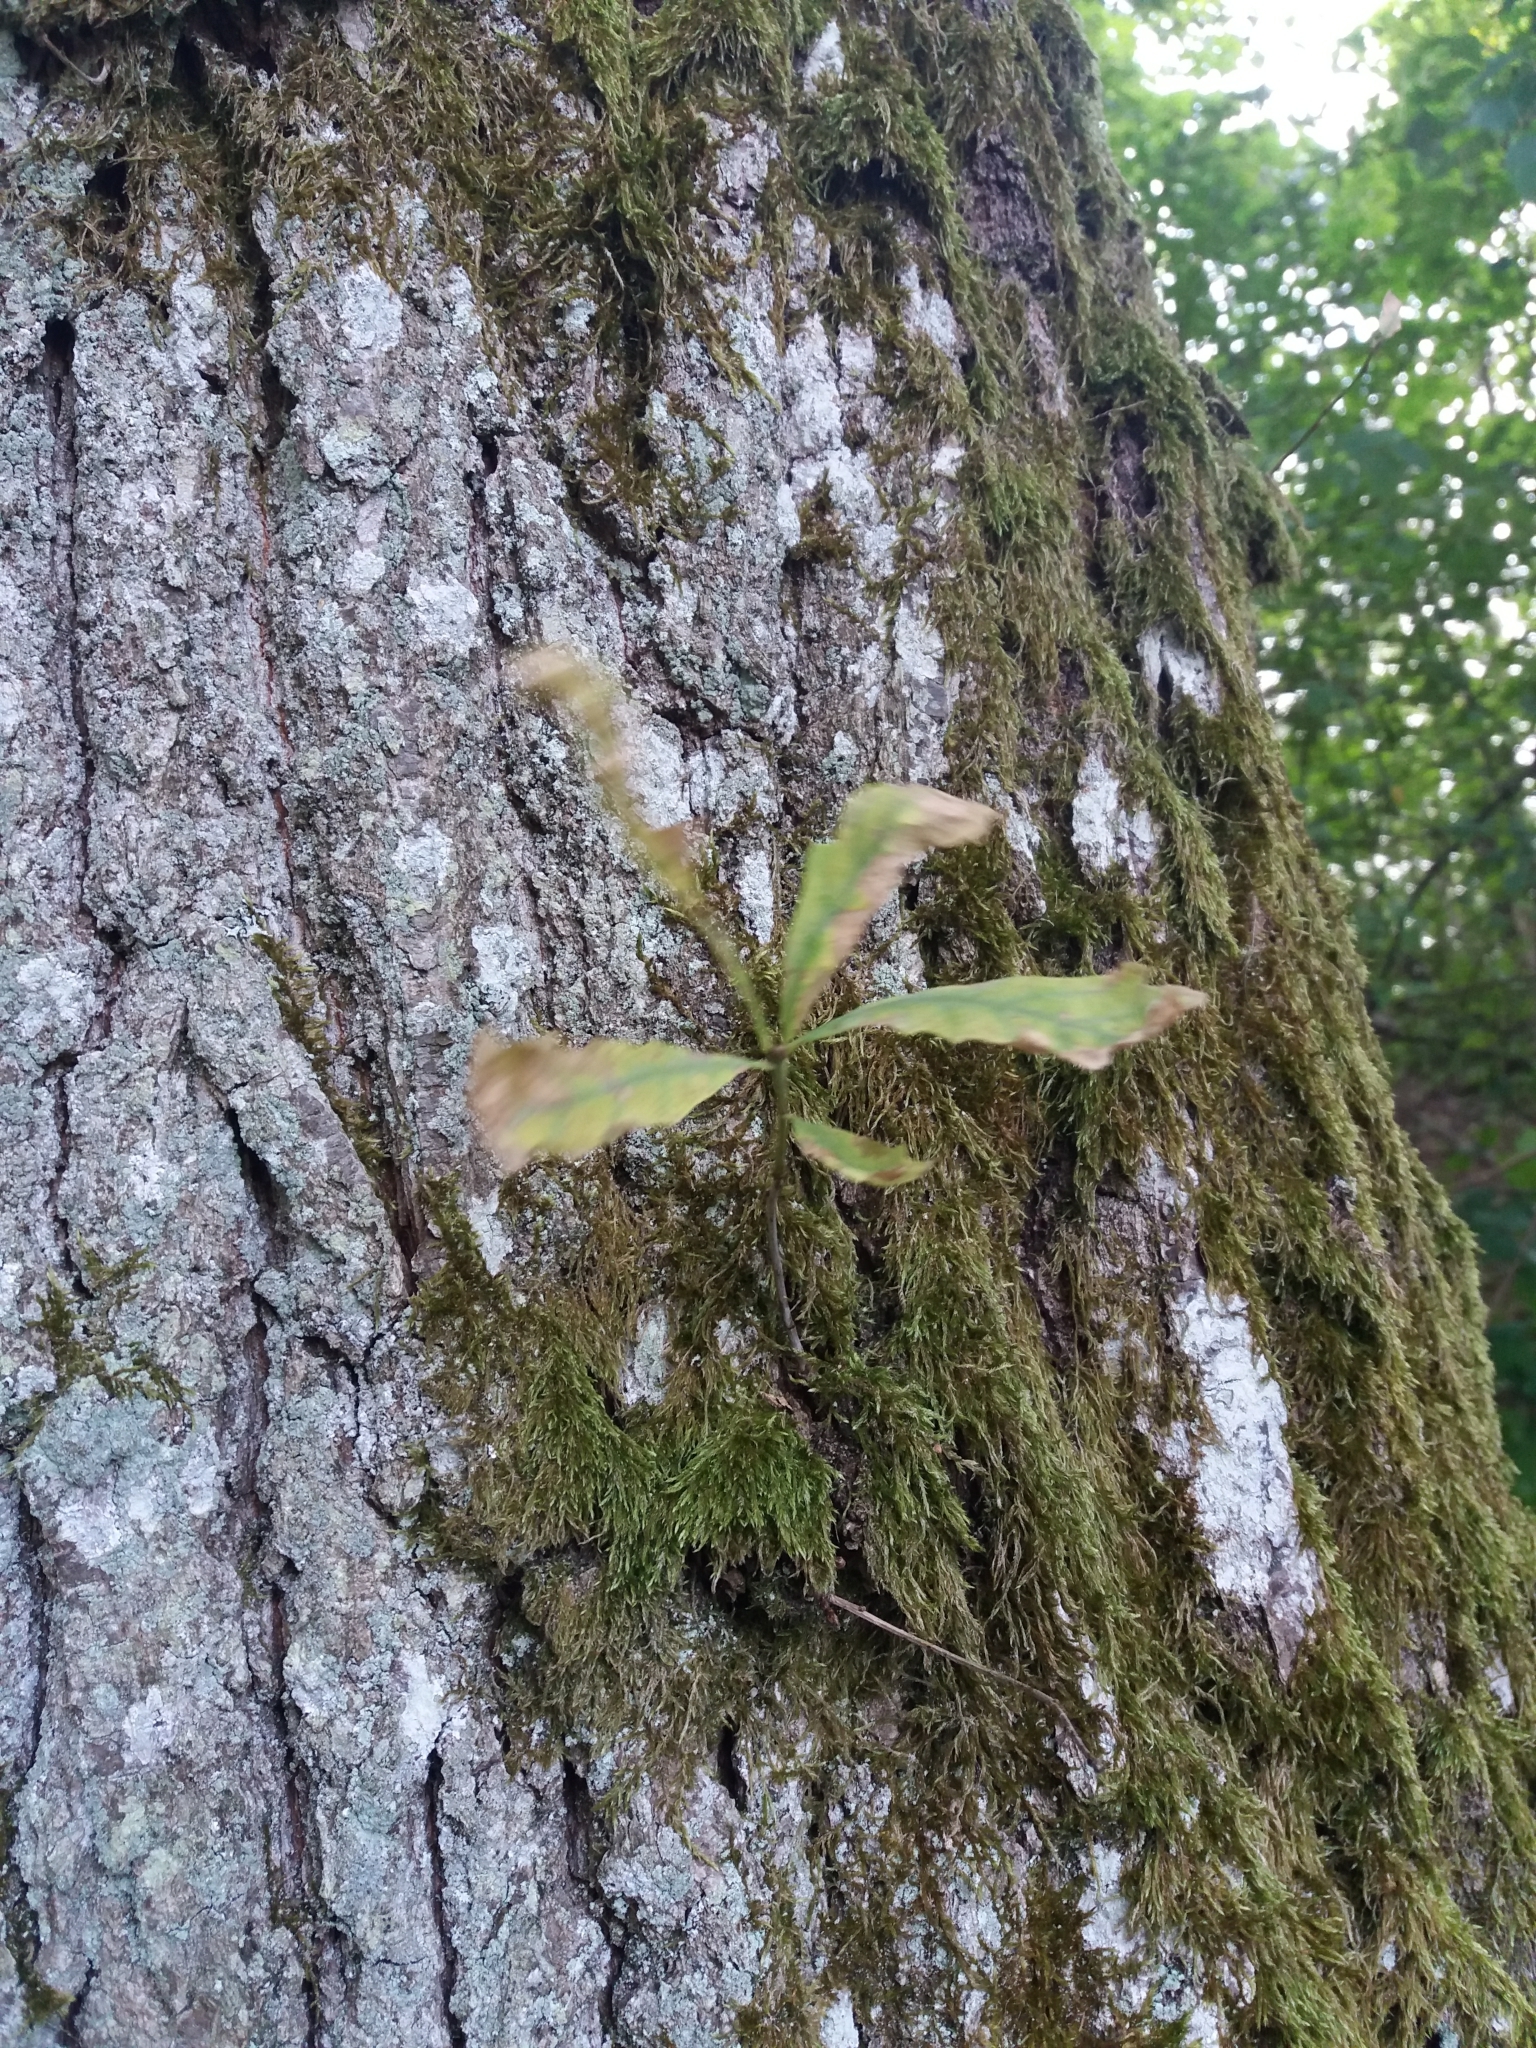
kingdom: Plantae
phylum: Tracheophyta
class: Magnoliopsida
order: Fagales
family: Fagaceae
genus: Quercus
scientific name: Quercus robur
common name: Pedunculate oak
